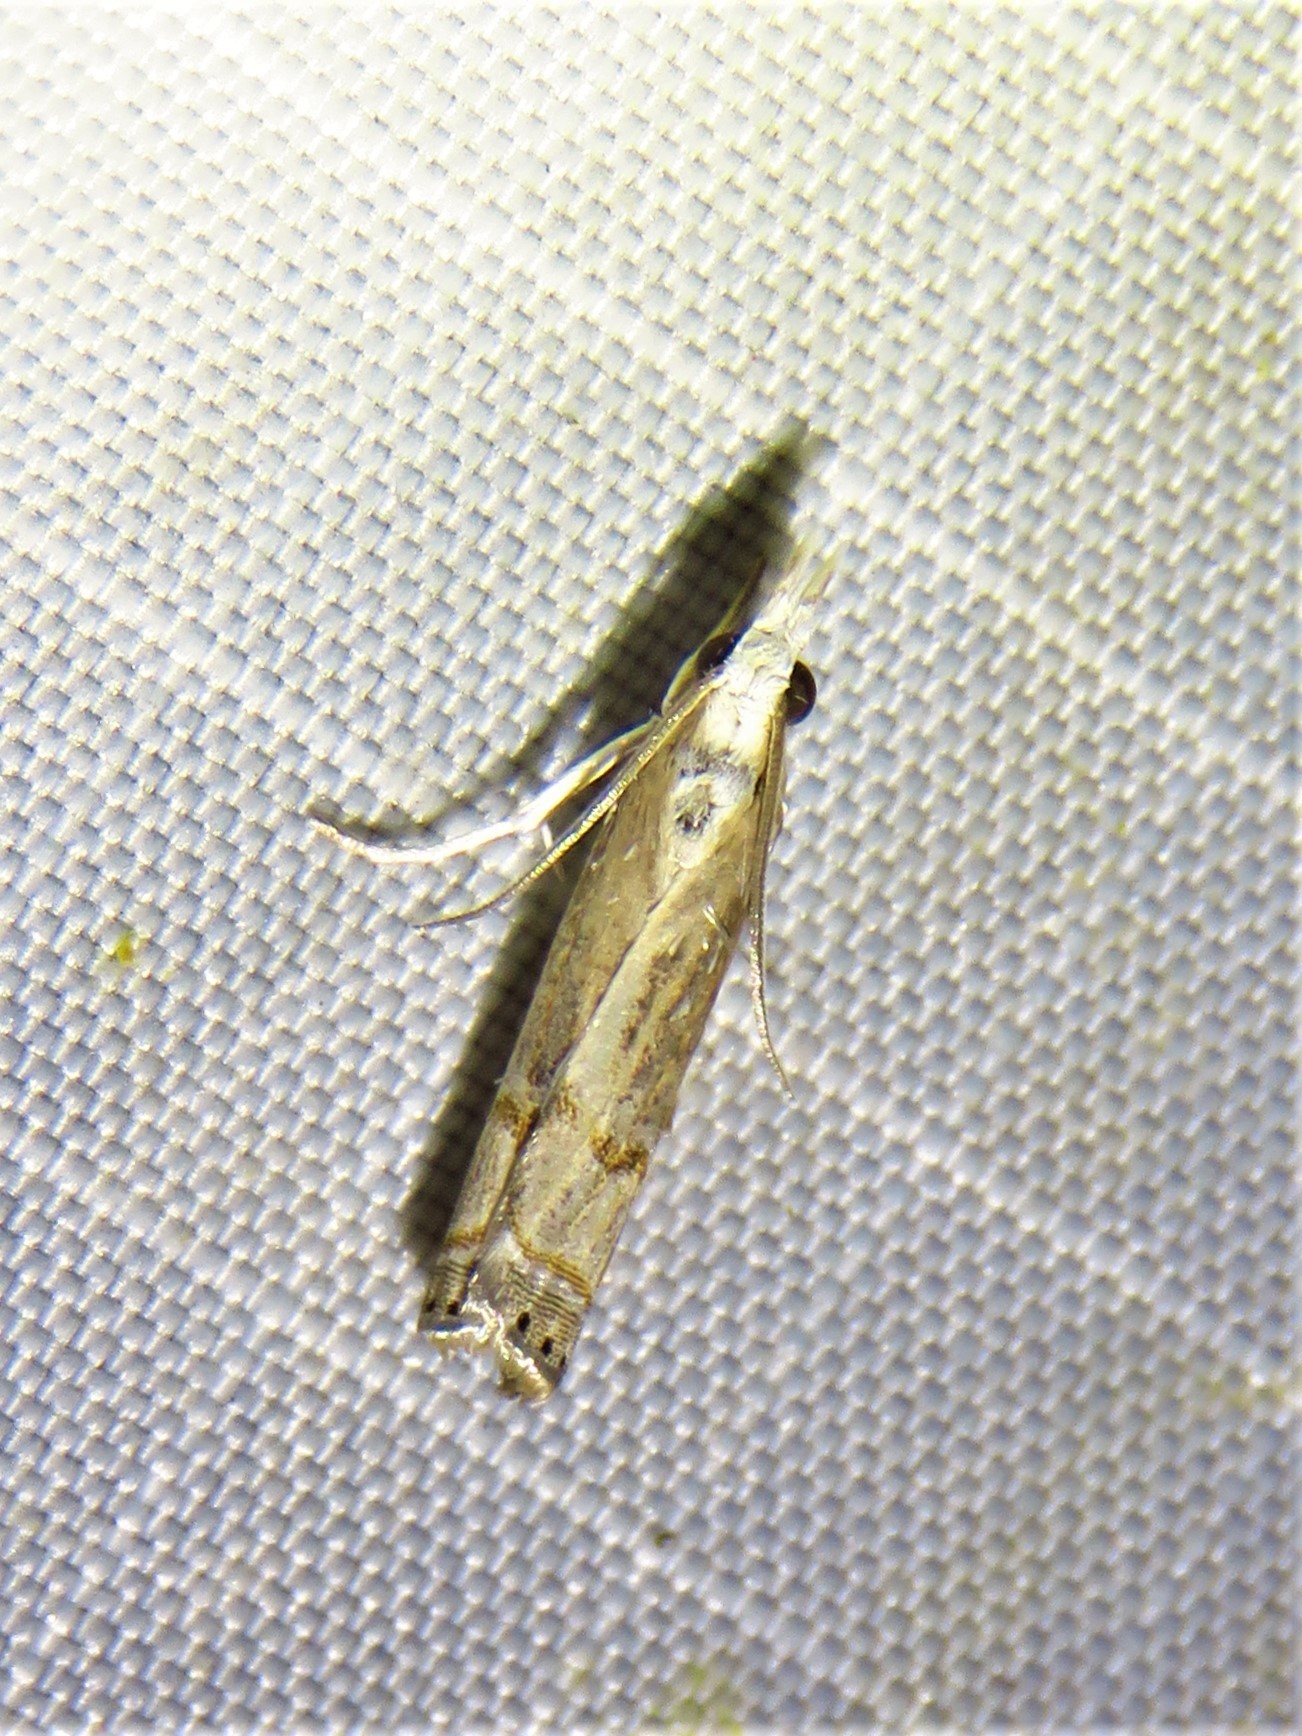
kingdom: Animalia
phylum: Arthropoda
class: Insecta
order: Lepidoptera
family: Crambidae
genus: Parapediasia
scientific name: Parapediasia teterellus
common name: Bluegrass webworm moth
